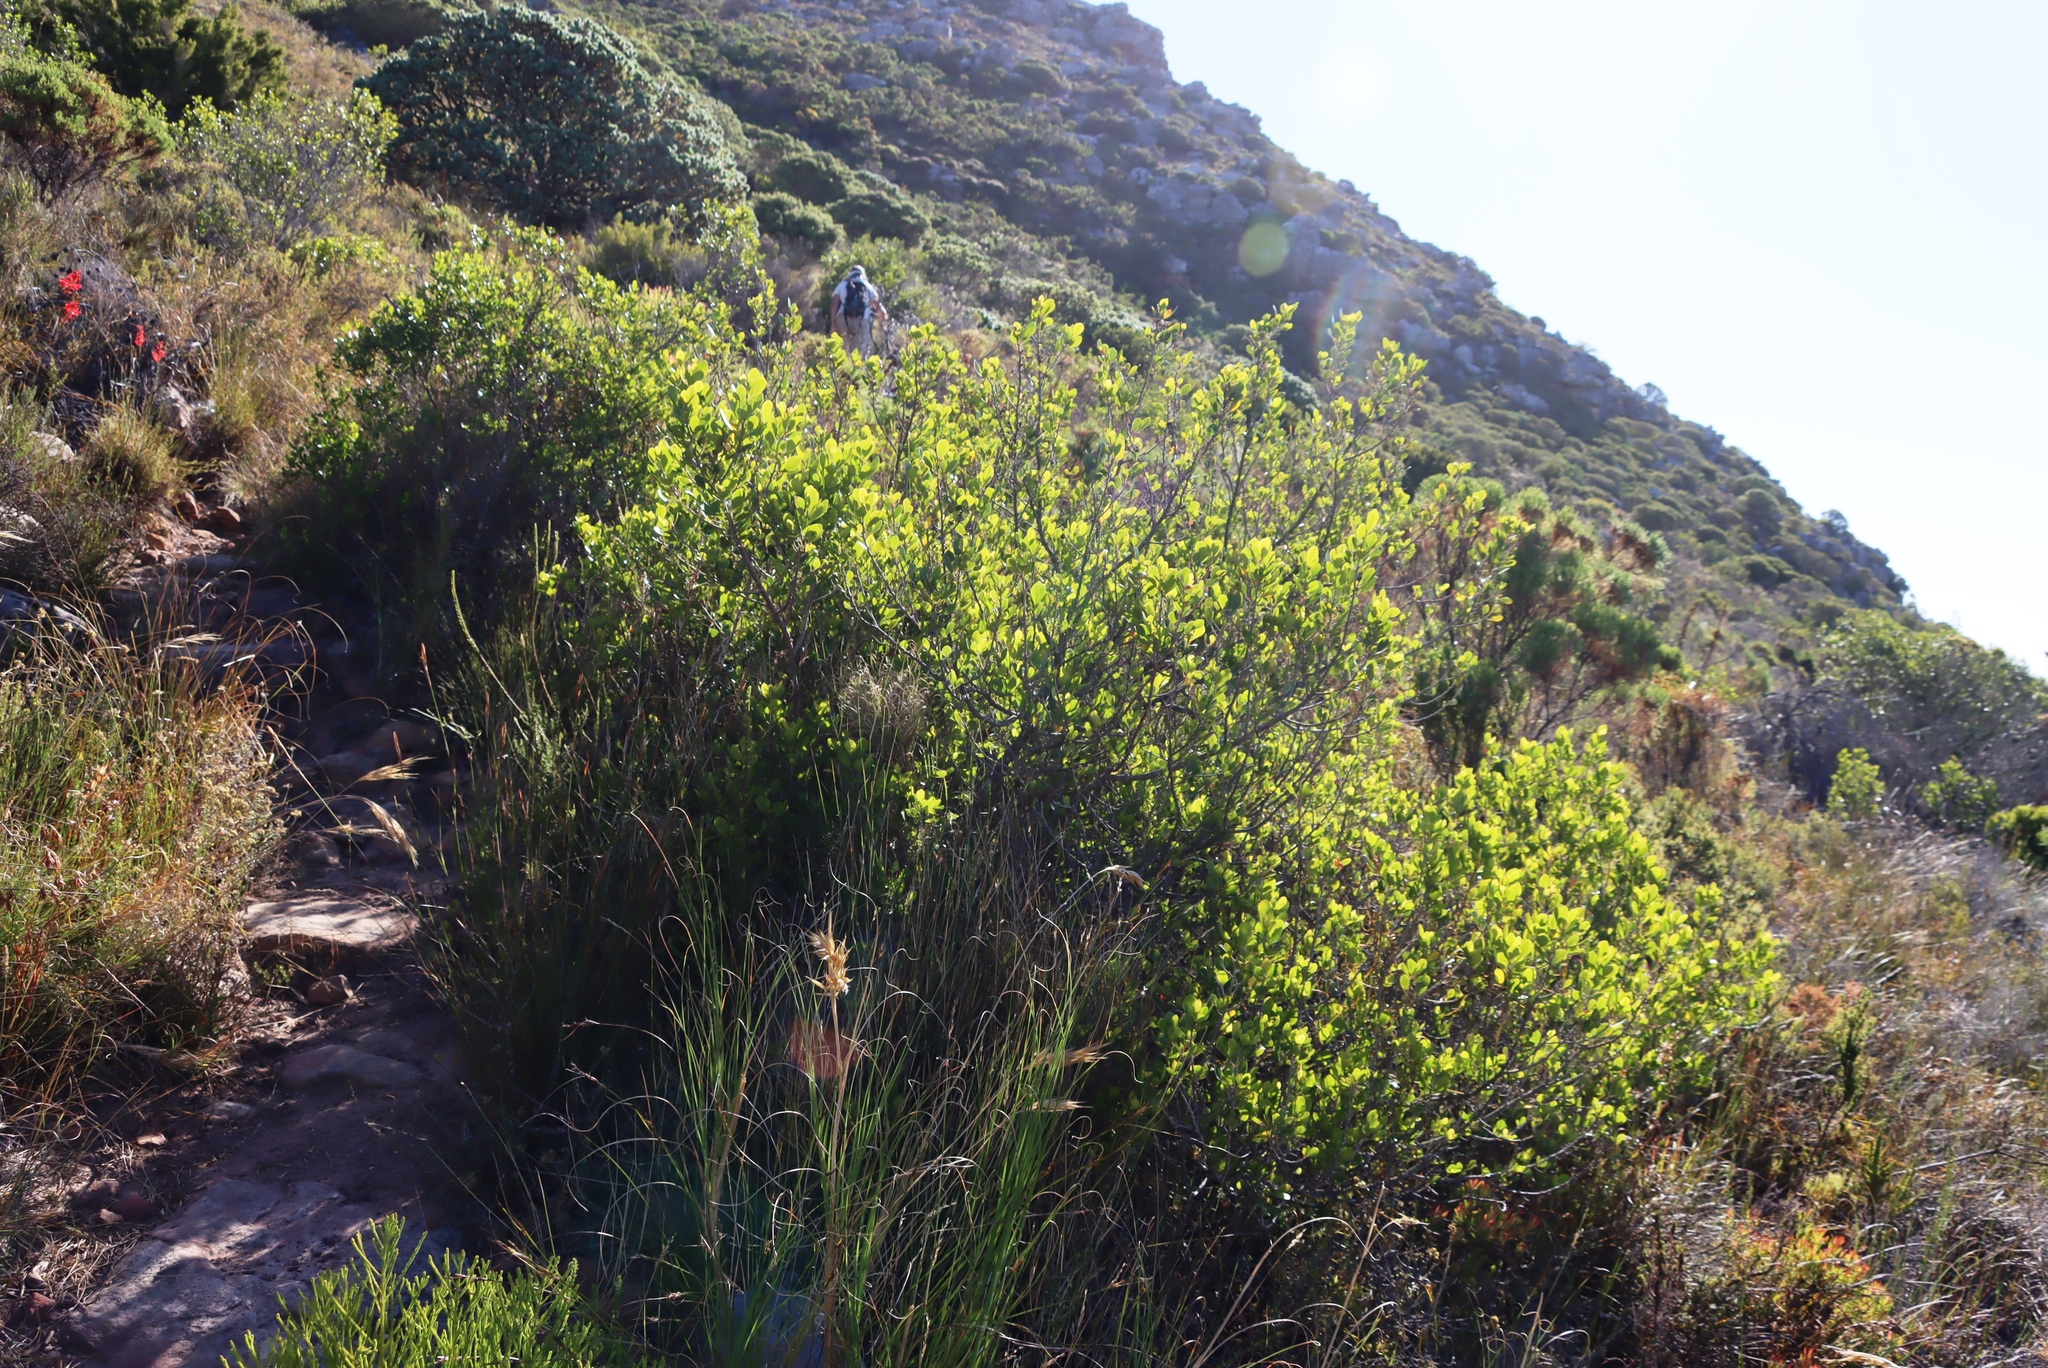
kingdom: Plantae
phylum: Tracheophyta
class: Magnoliopsida
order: Sapindales
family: Anacardiaceae
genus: Searsia
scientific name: Searsia lucida
